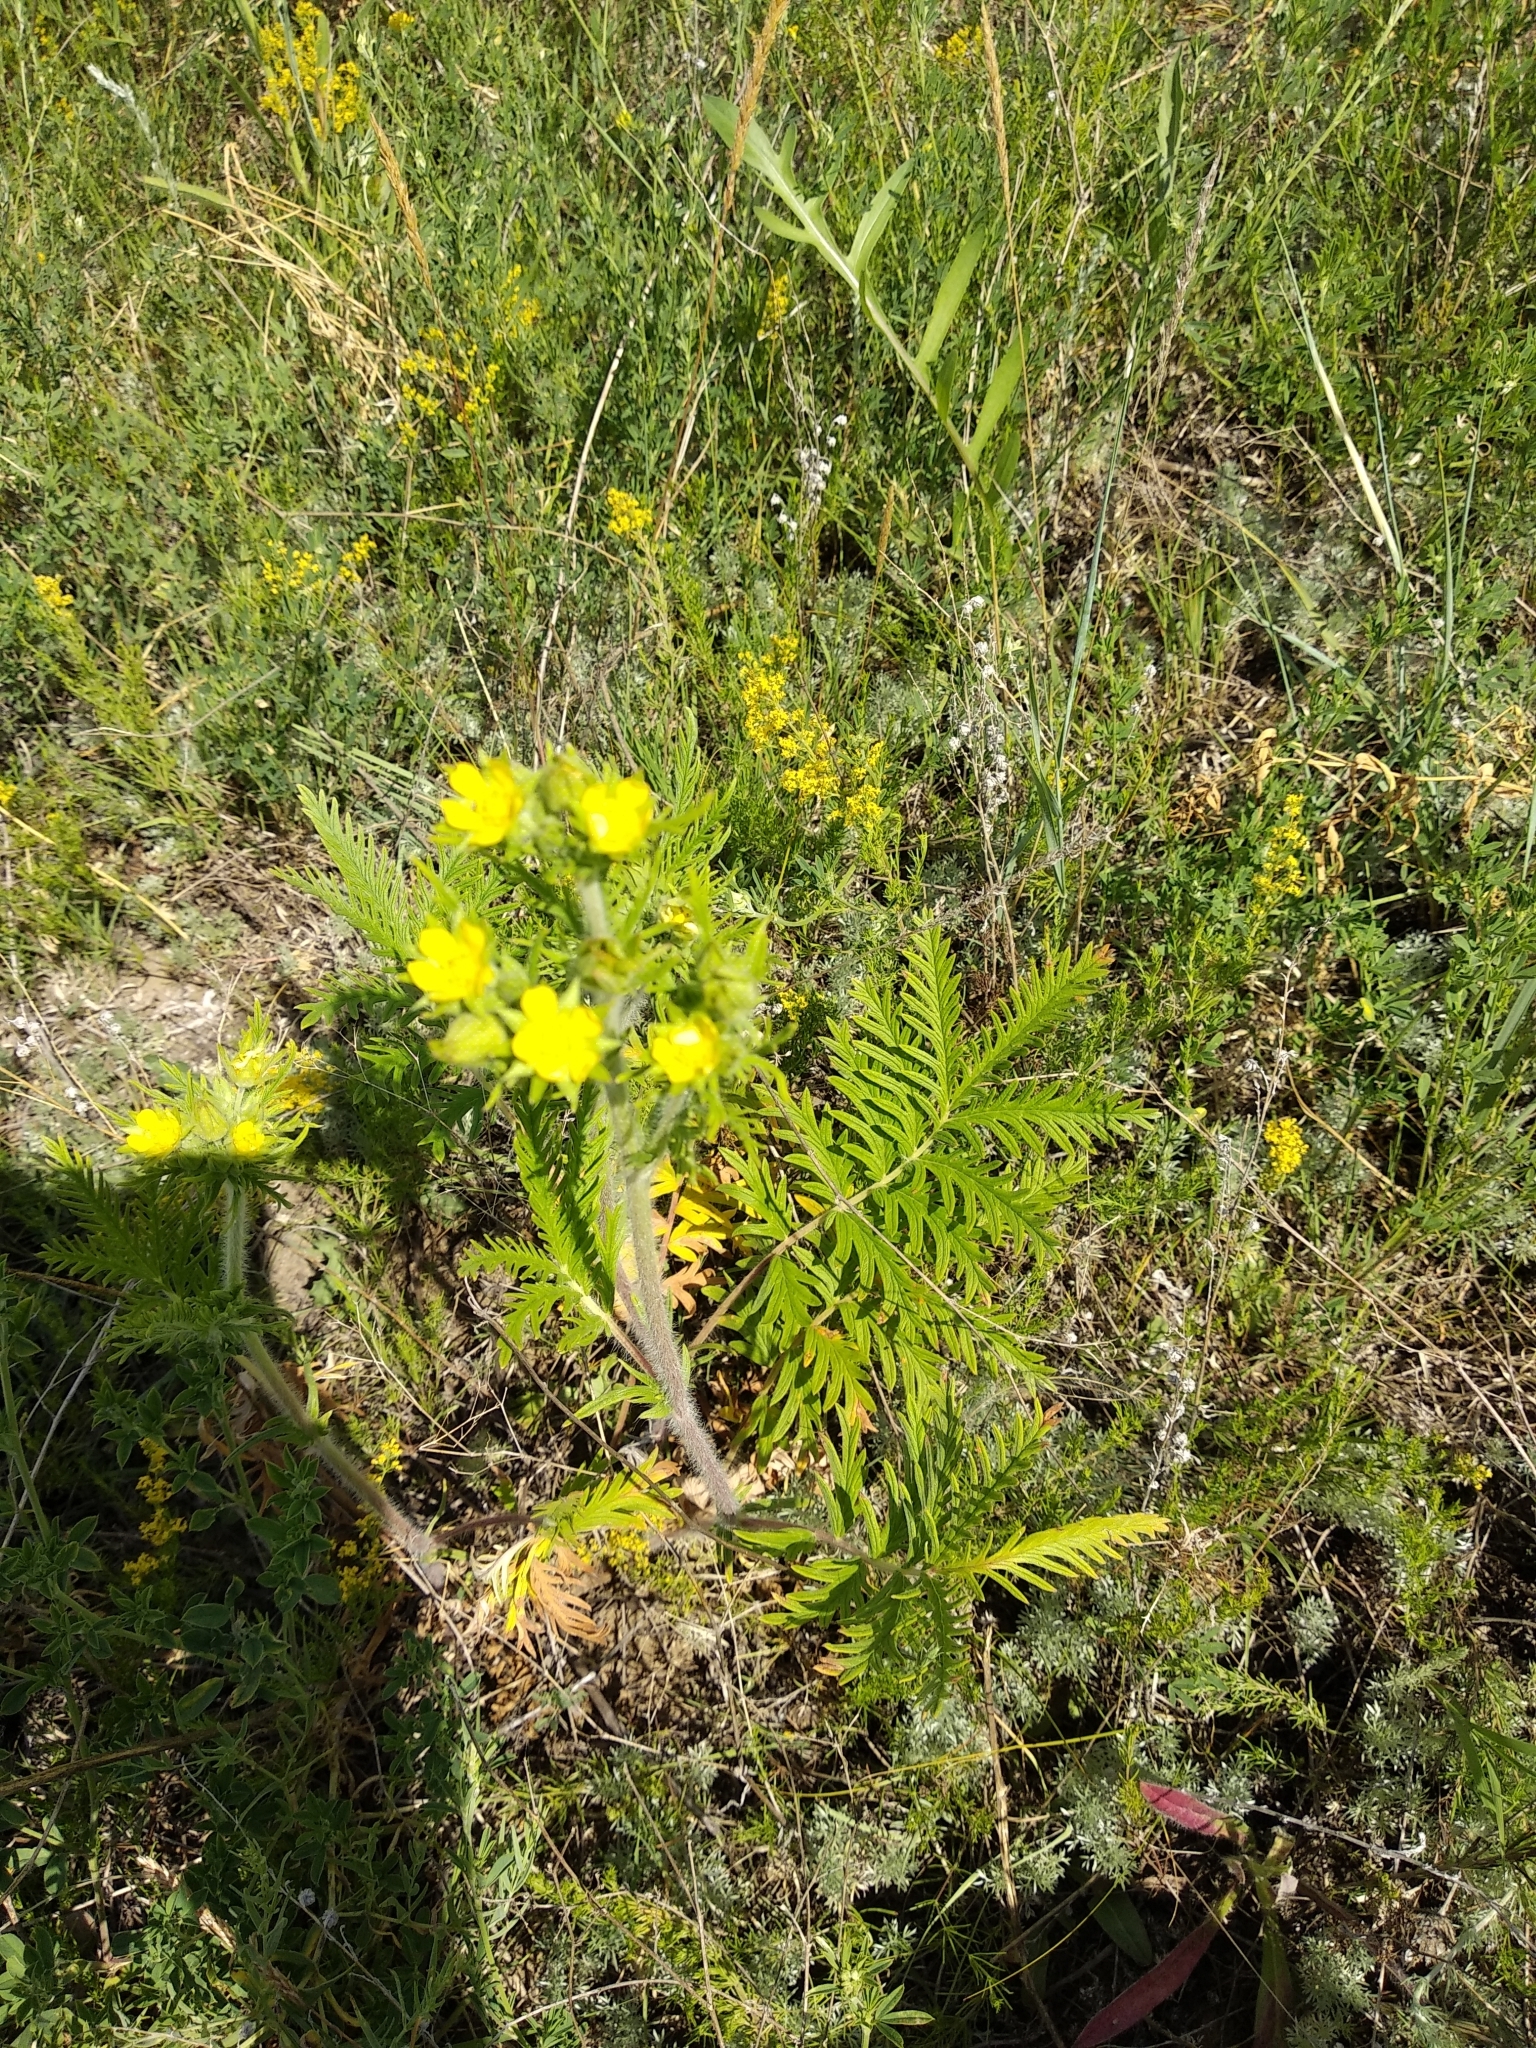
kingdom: Plantae
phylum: Tracheophyta
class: Magnoliopsida
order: Rosales
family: Rosaceae
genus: Potentilla
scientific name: Potentilla conferta
